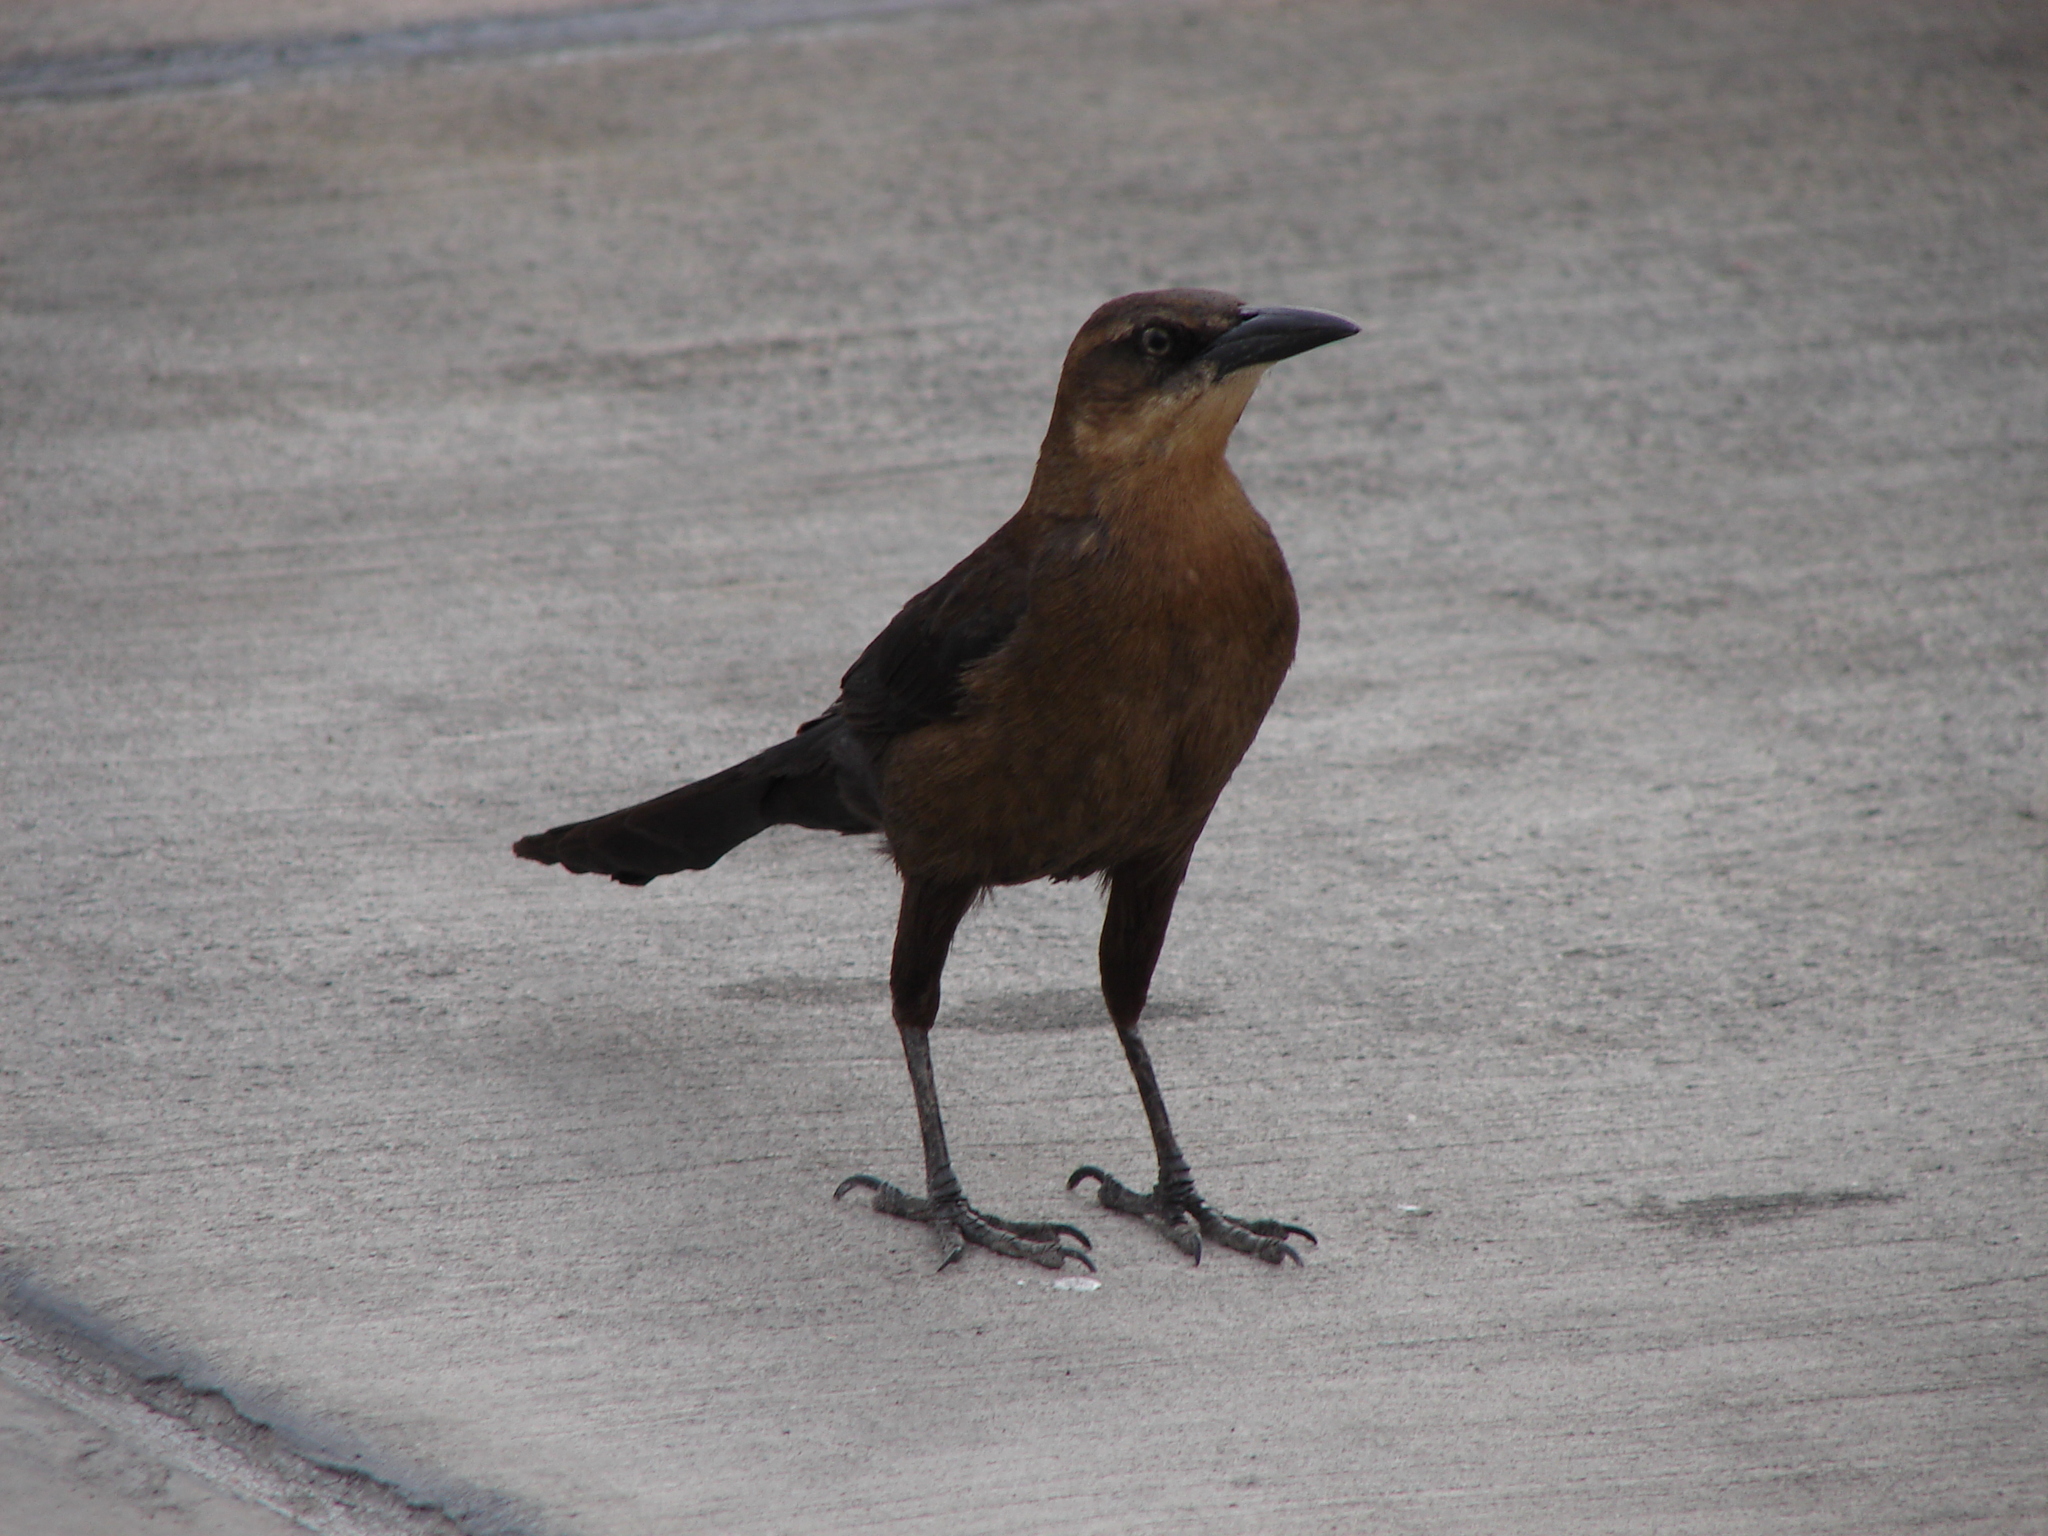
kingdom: Animalia
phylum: Chordata
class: Aves
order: Passeriformes
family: Icteridae
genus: Quiscalus
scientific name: Quiscalus mexicanus
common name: Great-tailed grackle
